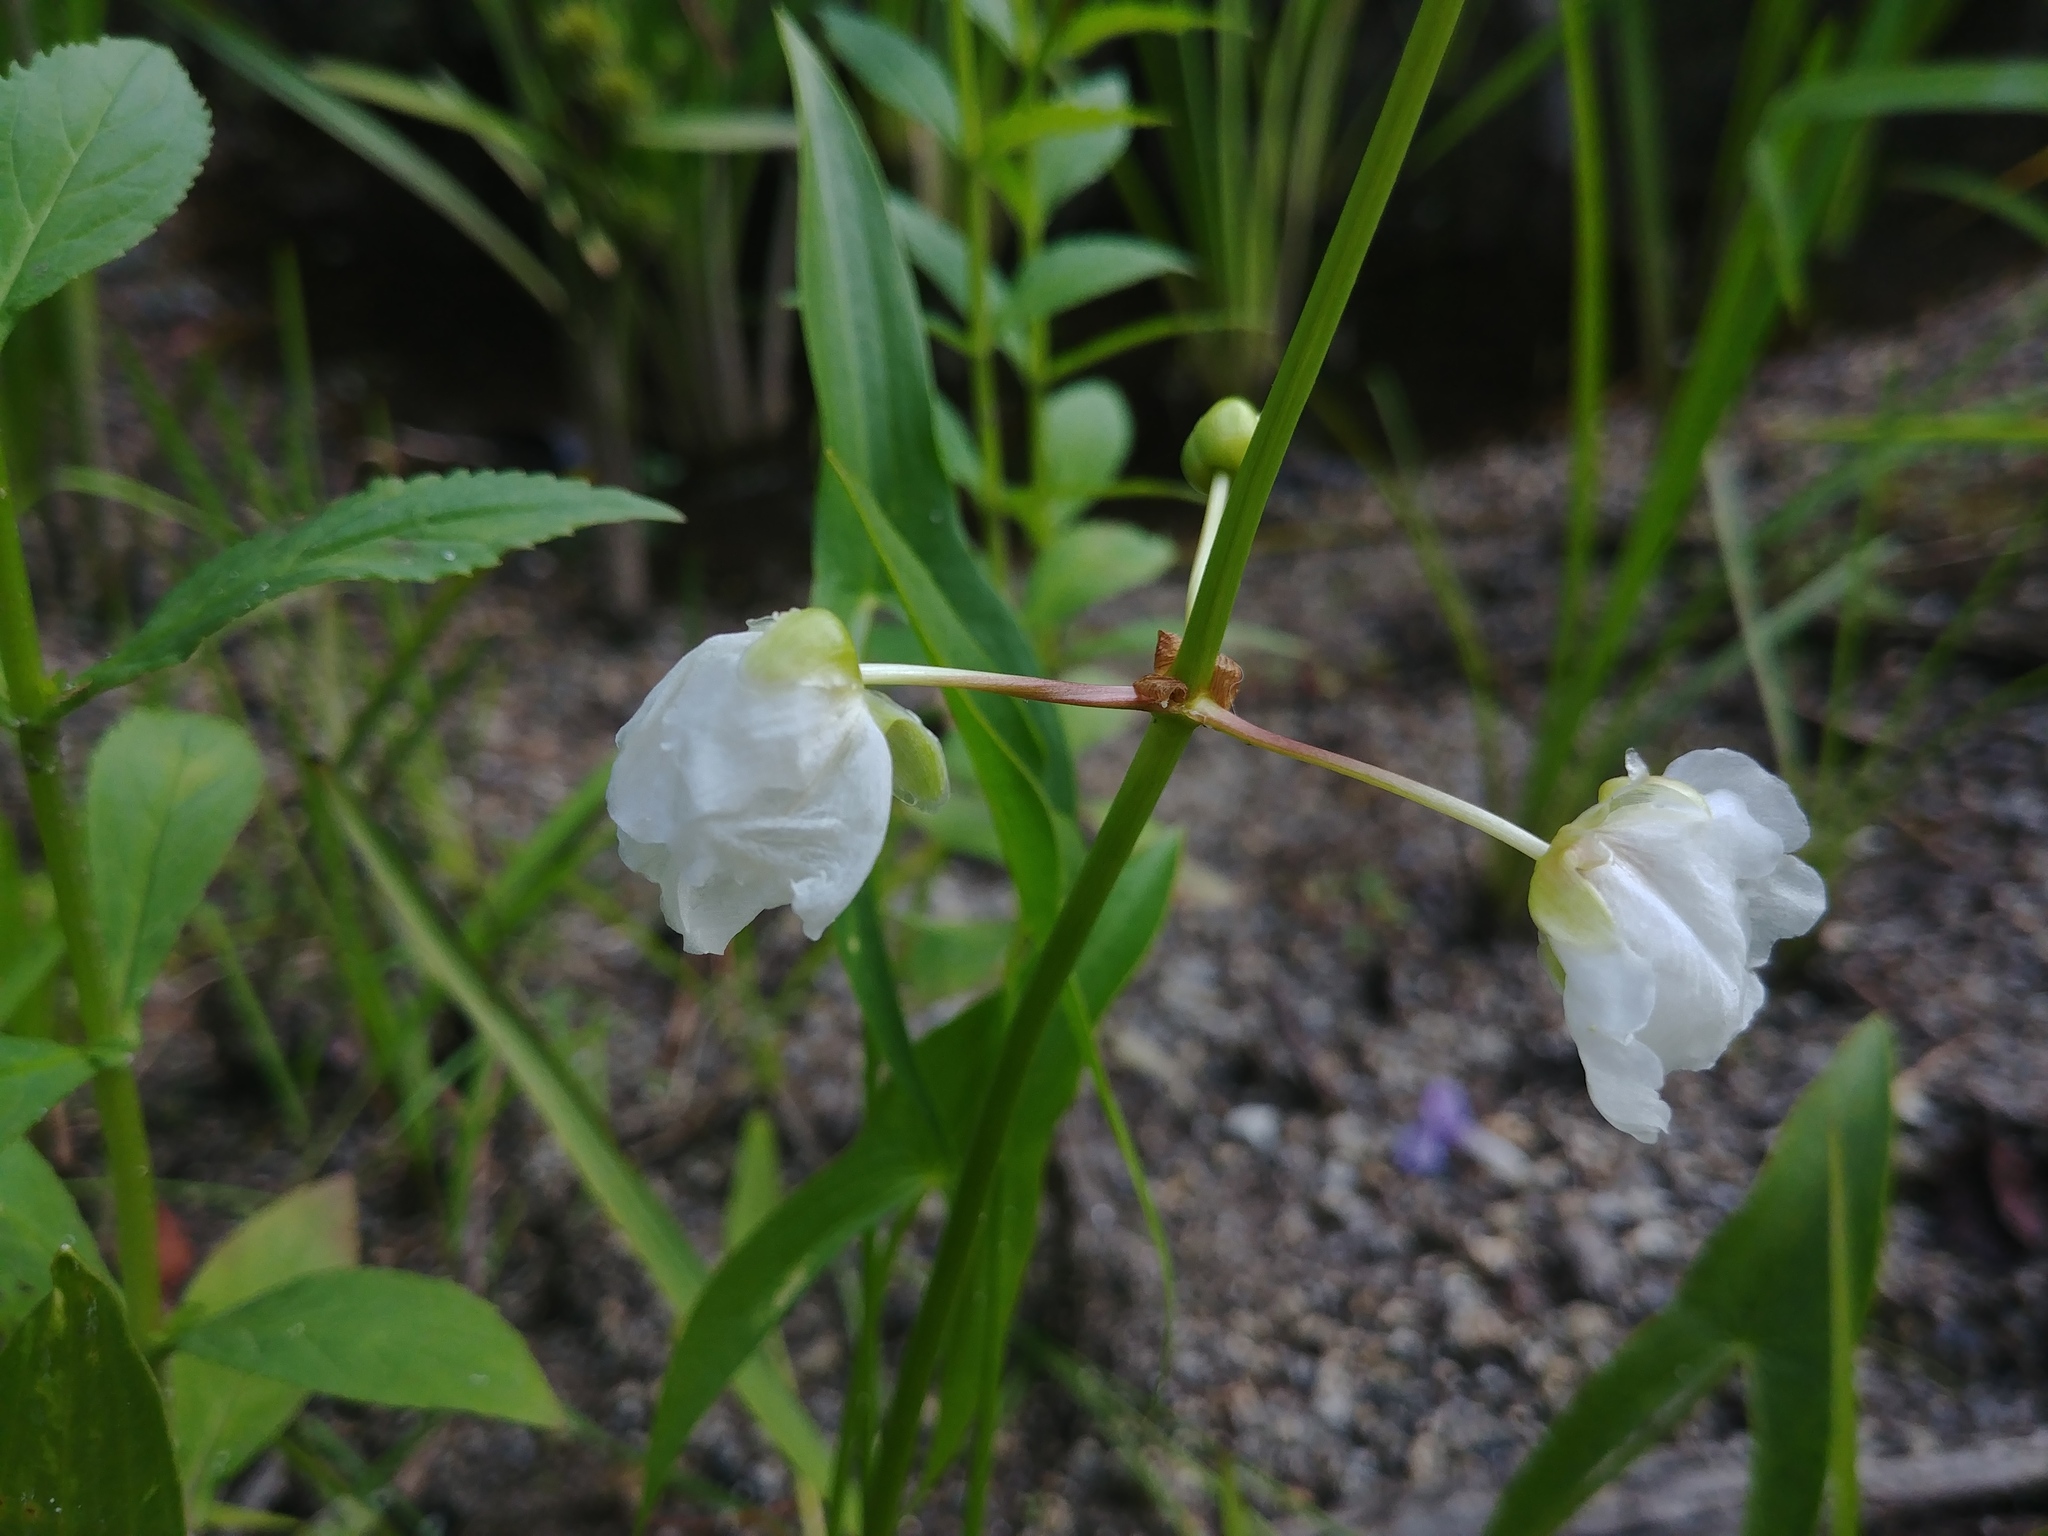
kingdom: Plantae
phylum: Tracheophyta
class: Liliopsida
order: Alismatales
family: Alismataceae
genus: Sagittaria
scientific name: Sagittaria latifolia
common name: Duck-potato
